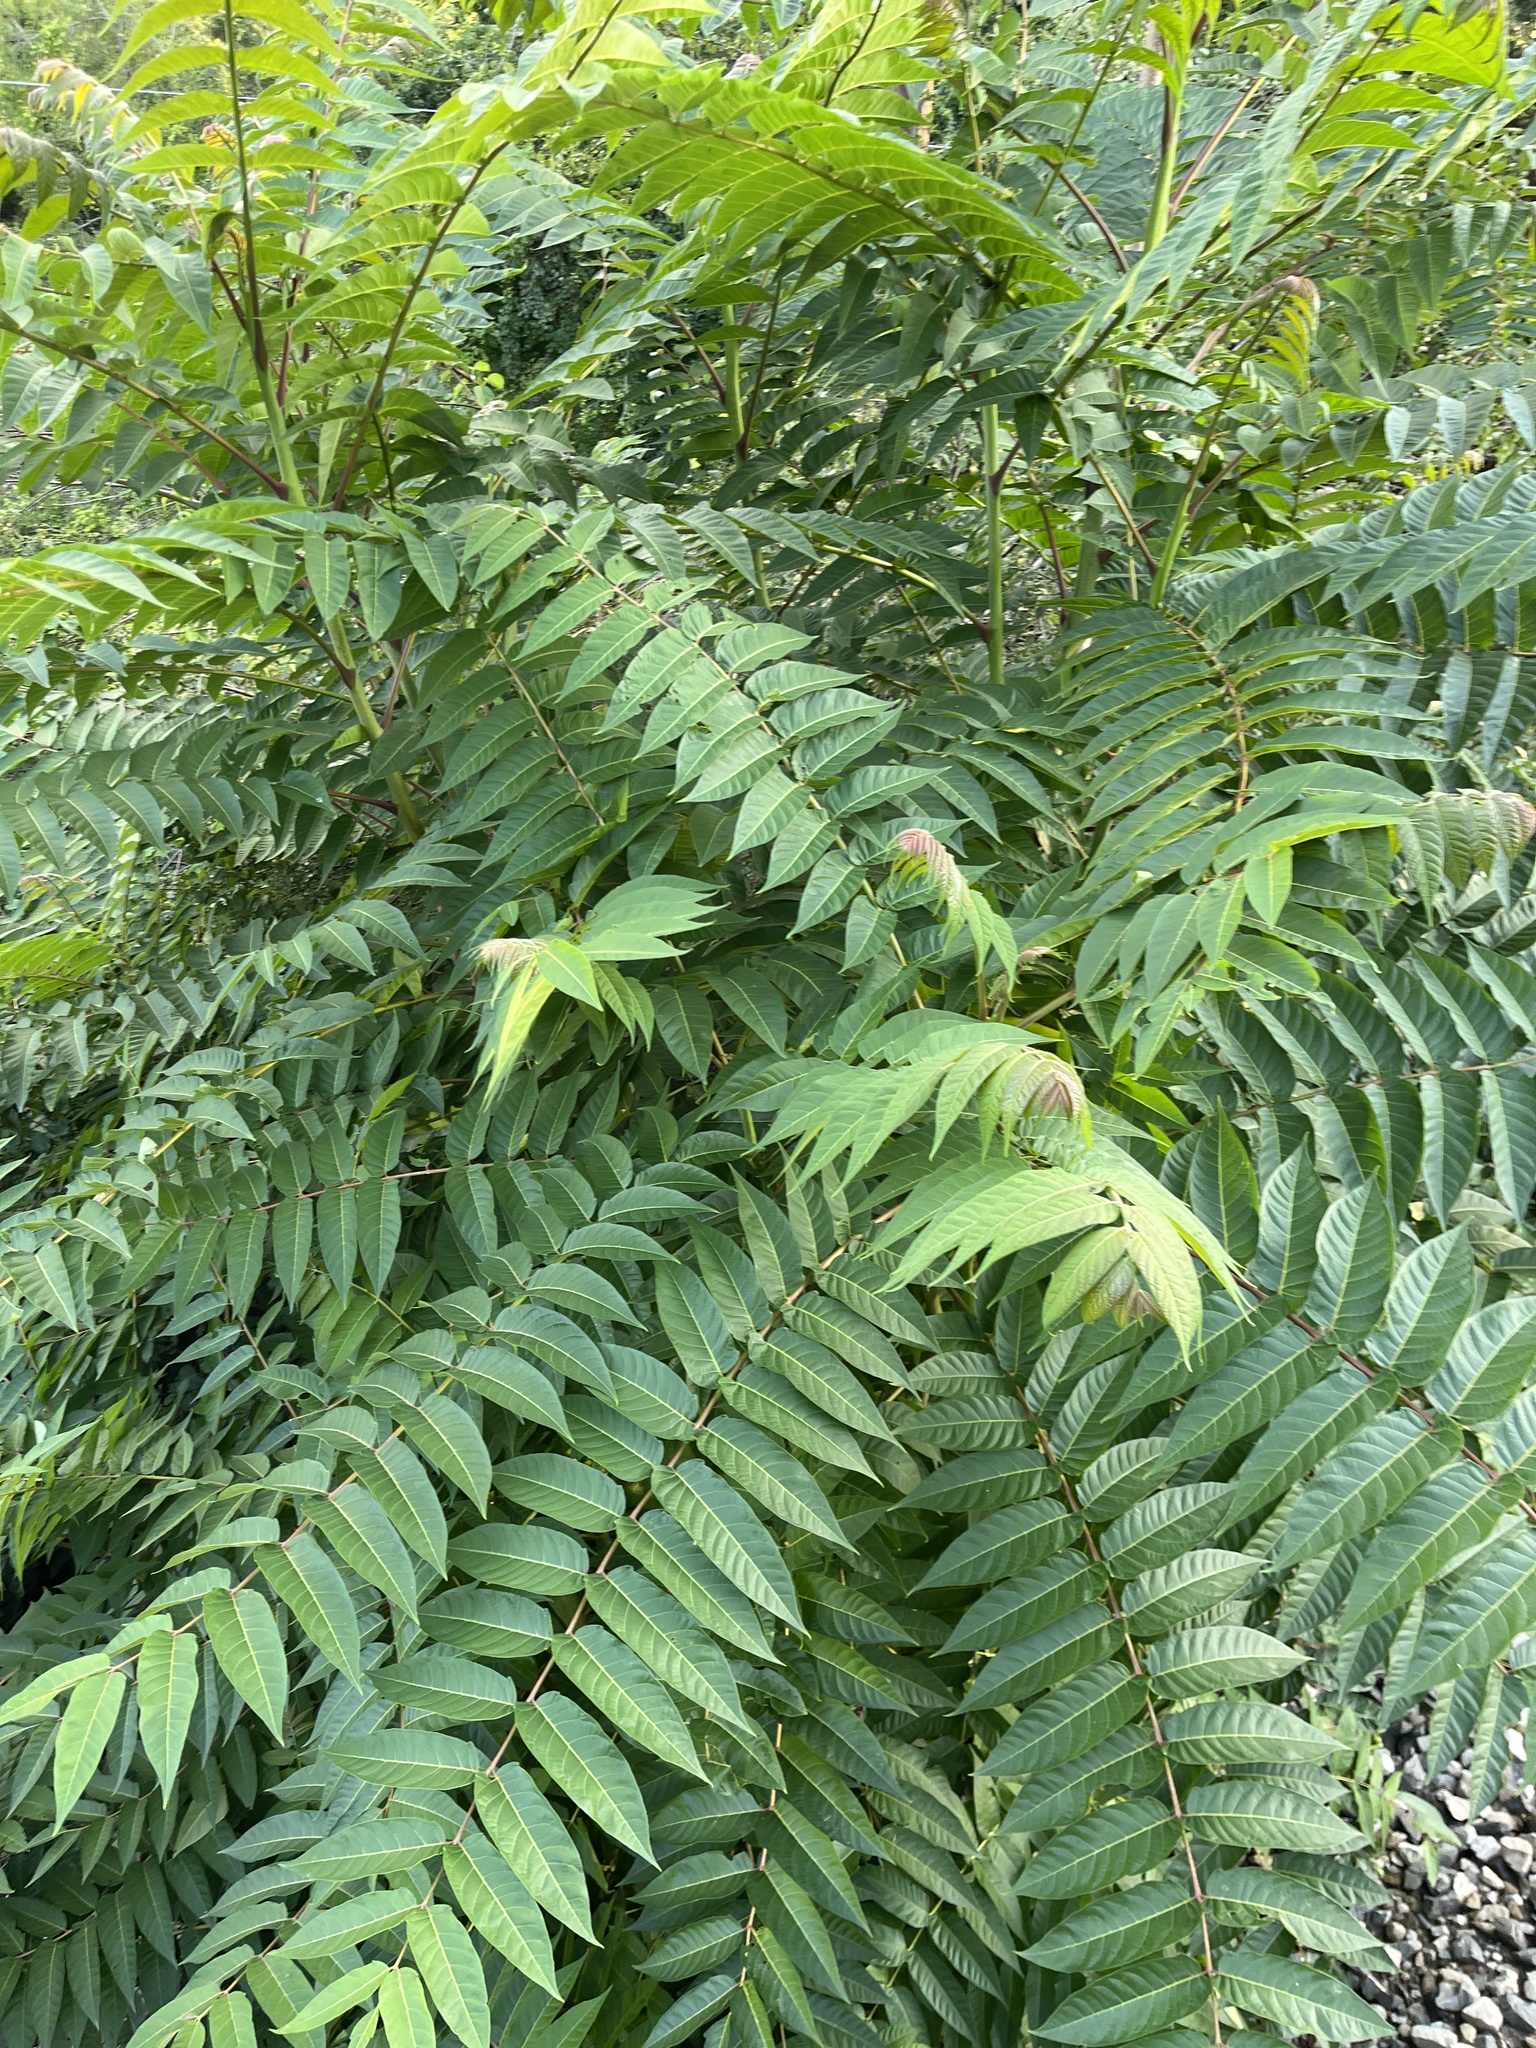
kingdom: Plantae
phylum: Tracheophyta
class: Magnoliopsida
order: Sapindales
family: Simaroubaceae
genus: Ailanthus
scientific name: Ailanthus altissima
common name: Tree-of-heaven
